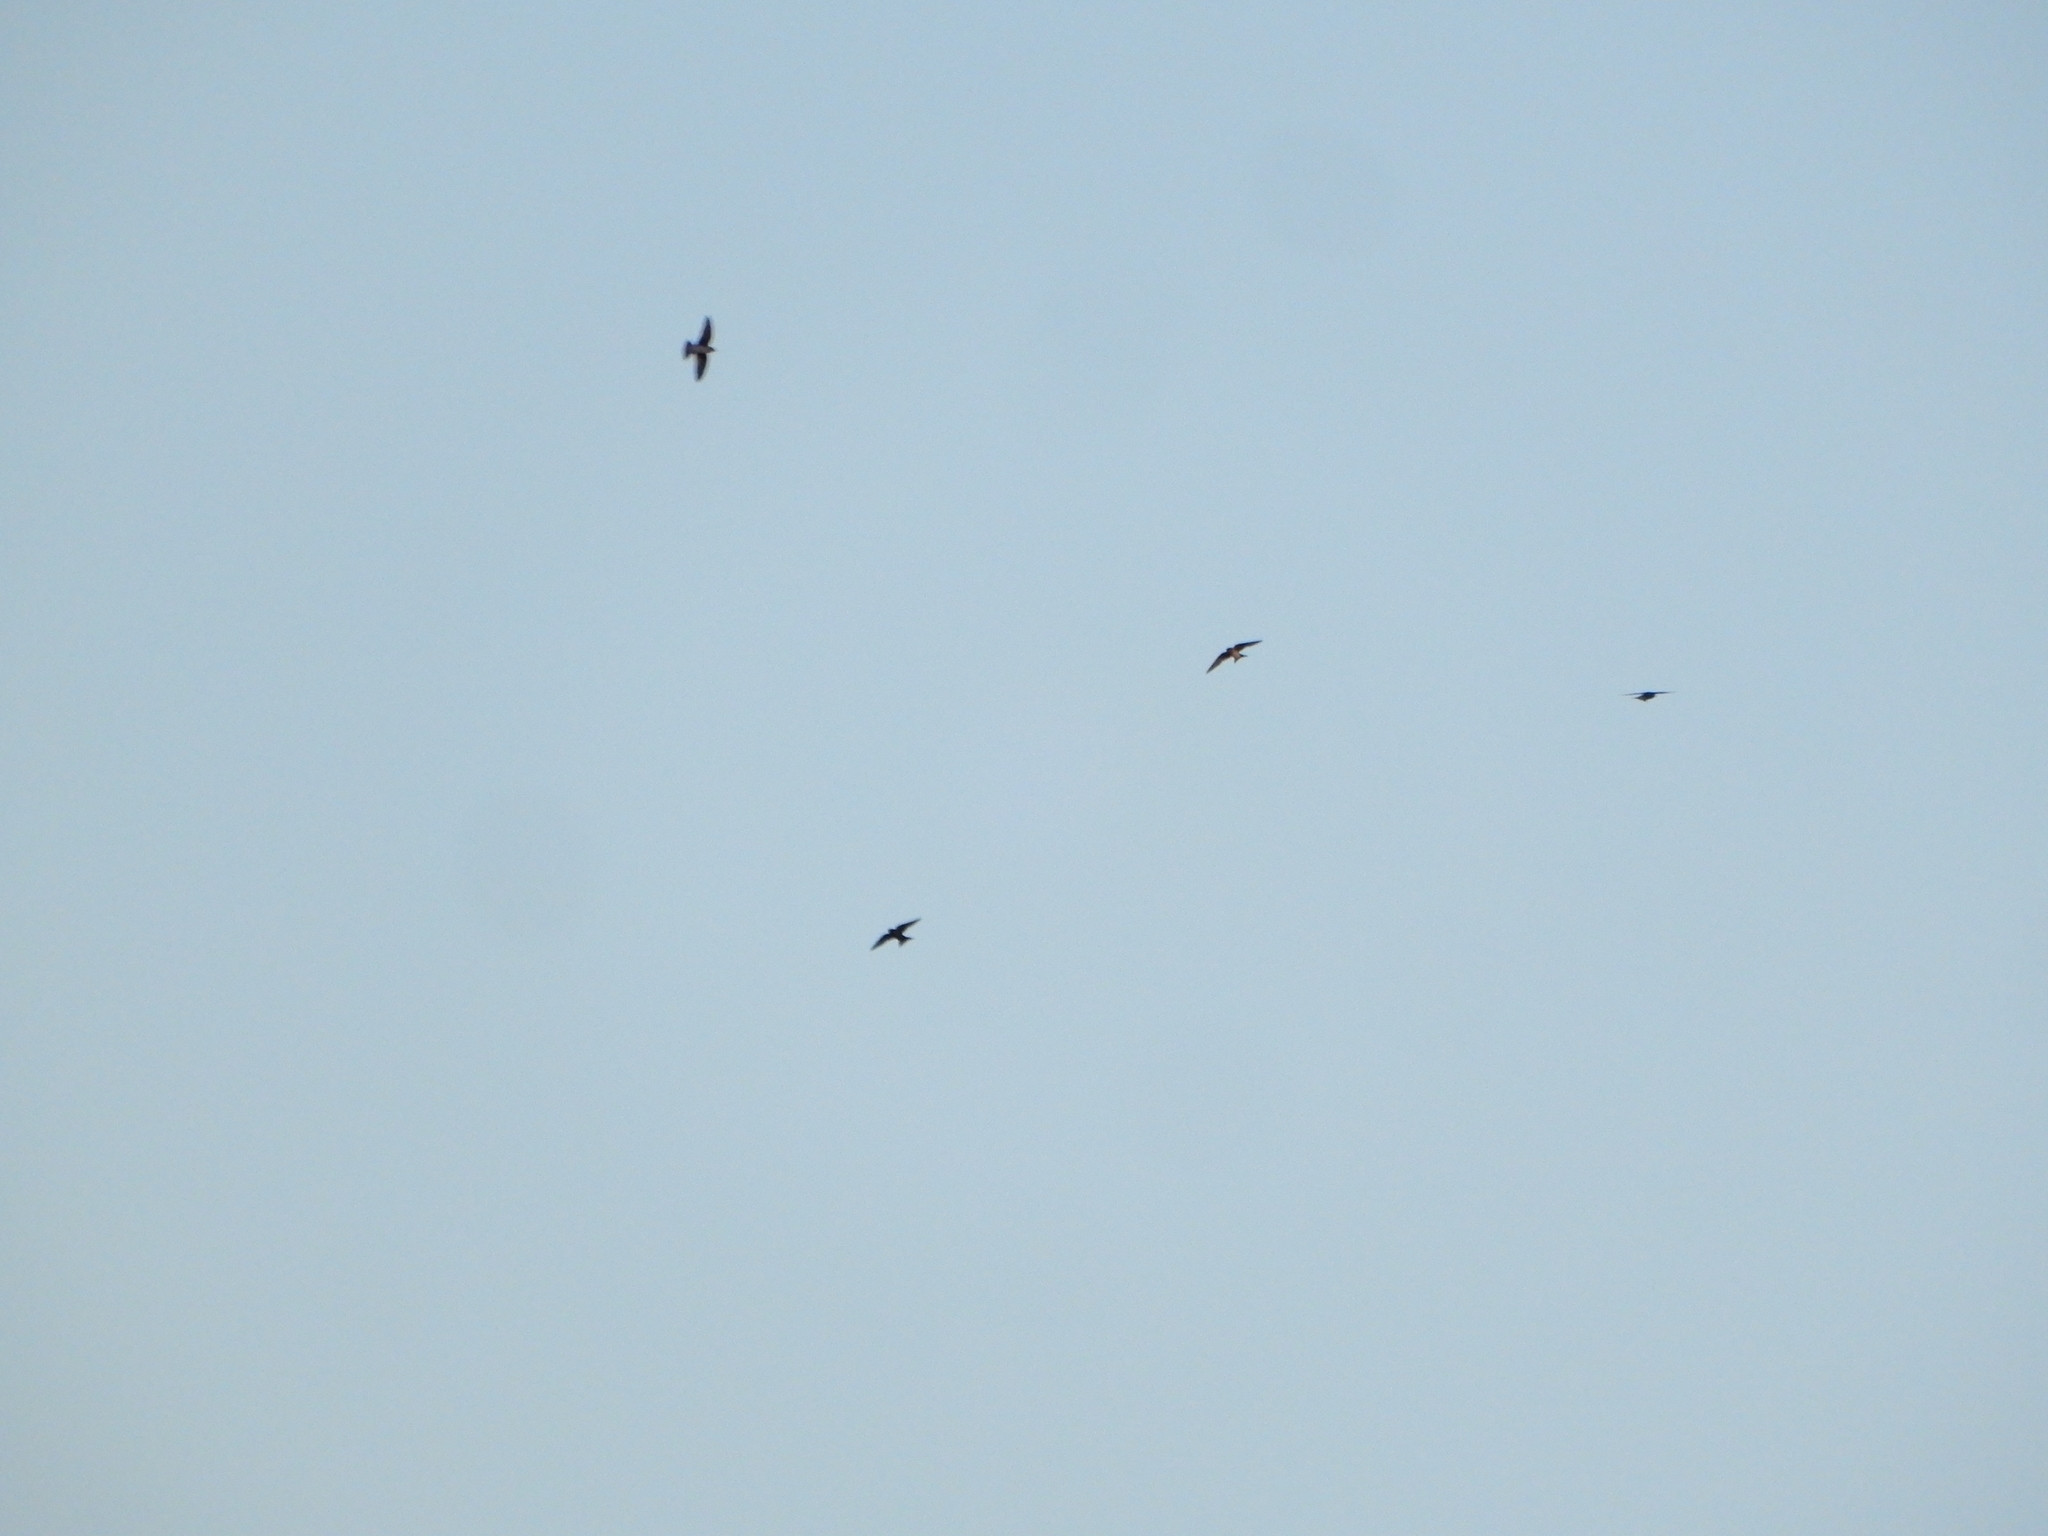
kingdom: Animalia
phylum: Chordata
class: Aves
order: Passeriformes
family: Hirundinidae
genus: Progne
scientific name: Progne subis
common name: Purple martin
